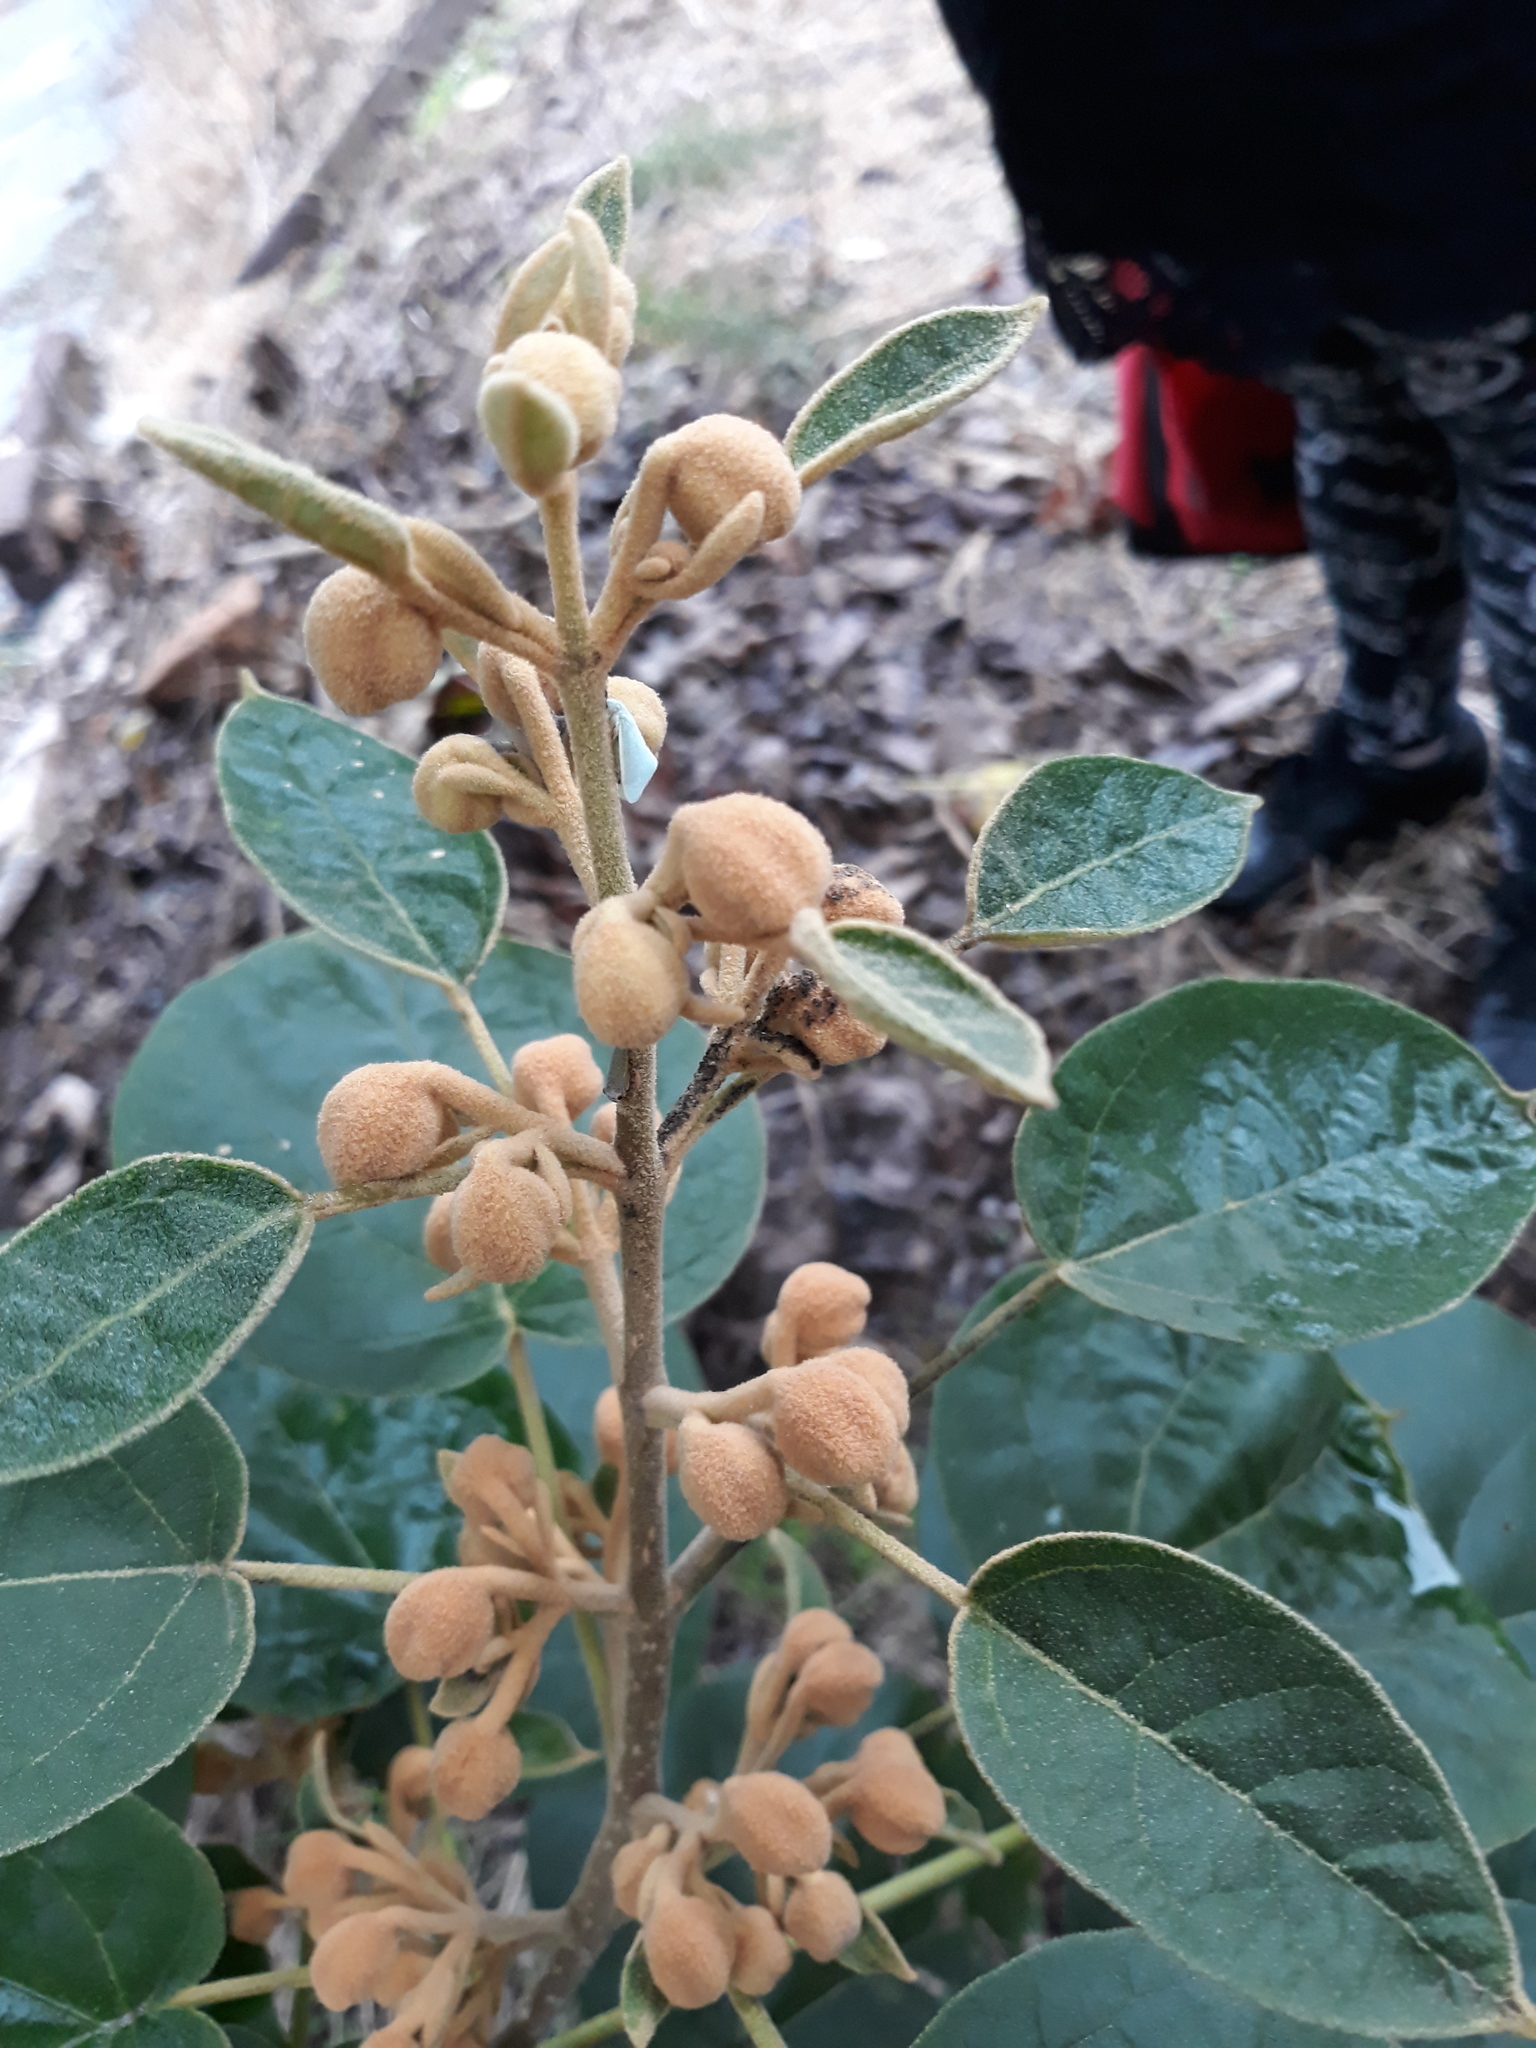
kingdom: Plantae
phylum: Tracheophyta
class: Magnoliopsida
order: Lamiales
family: Paulowniaceae
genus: Paulownia
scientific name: Paulownia tomentosa
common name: Foxglove-tree
